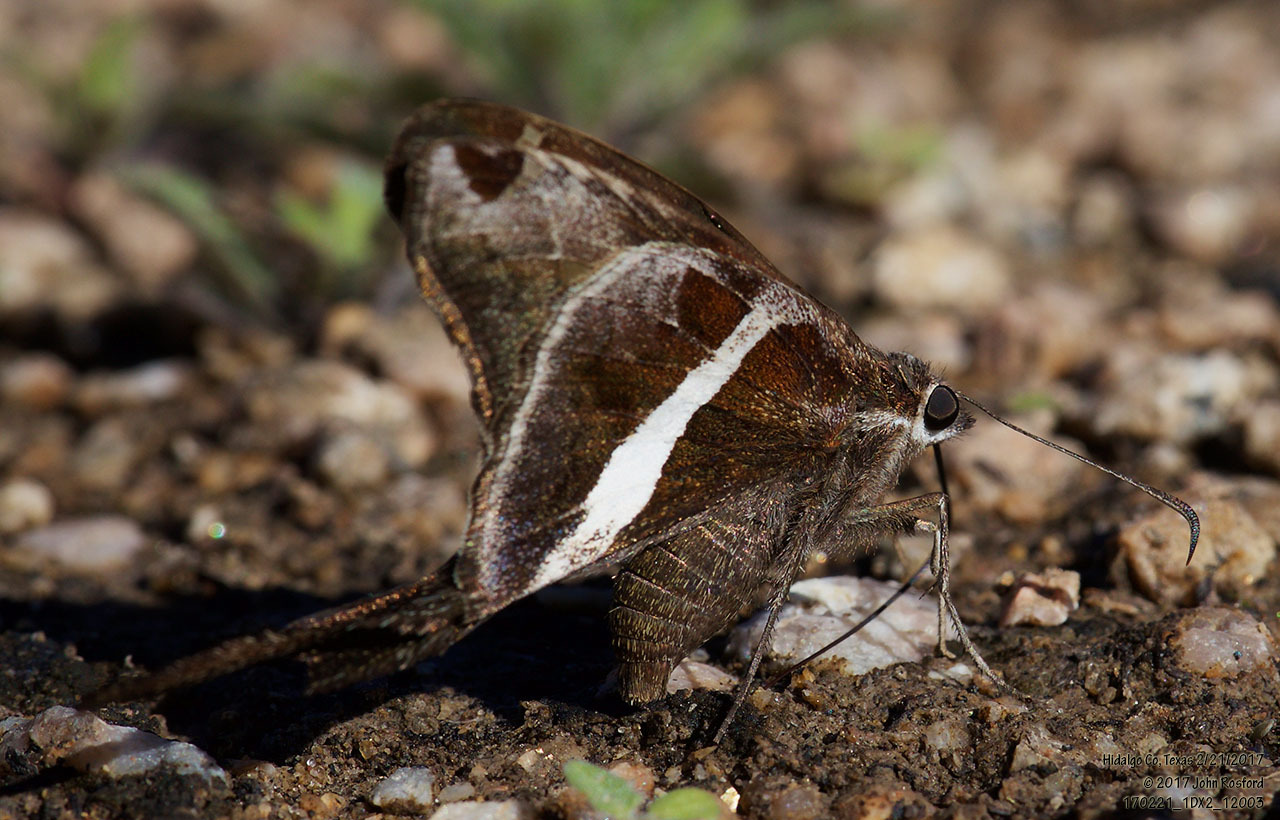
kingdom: Animalia
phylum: Arthropoda
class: Insecta
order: Lepidoptera
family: Hesperiidae
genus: Chioides
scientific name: Chioides catillus
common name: Silverbanded skipper
